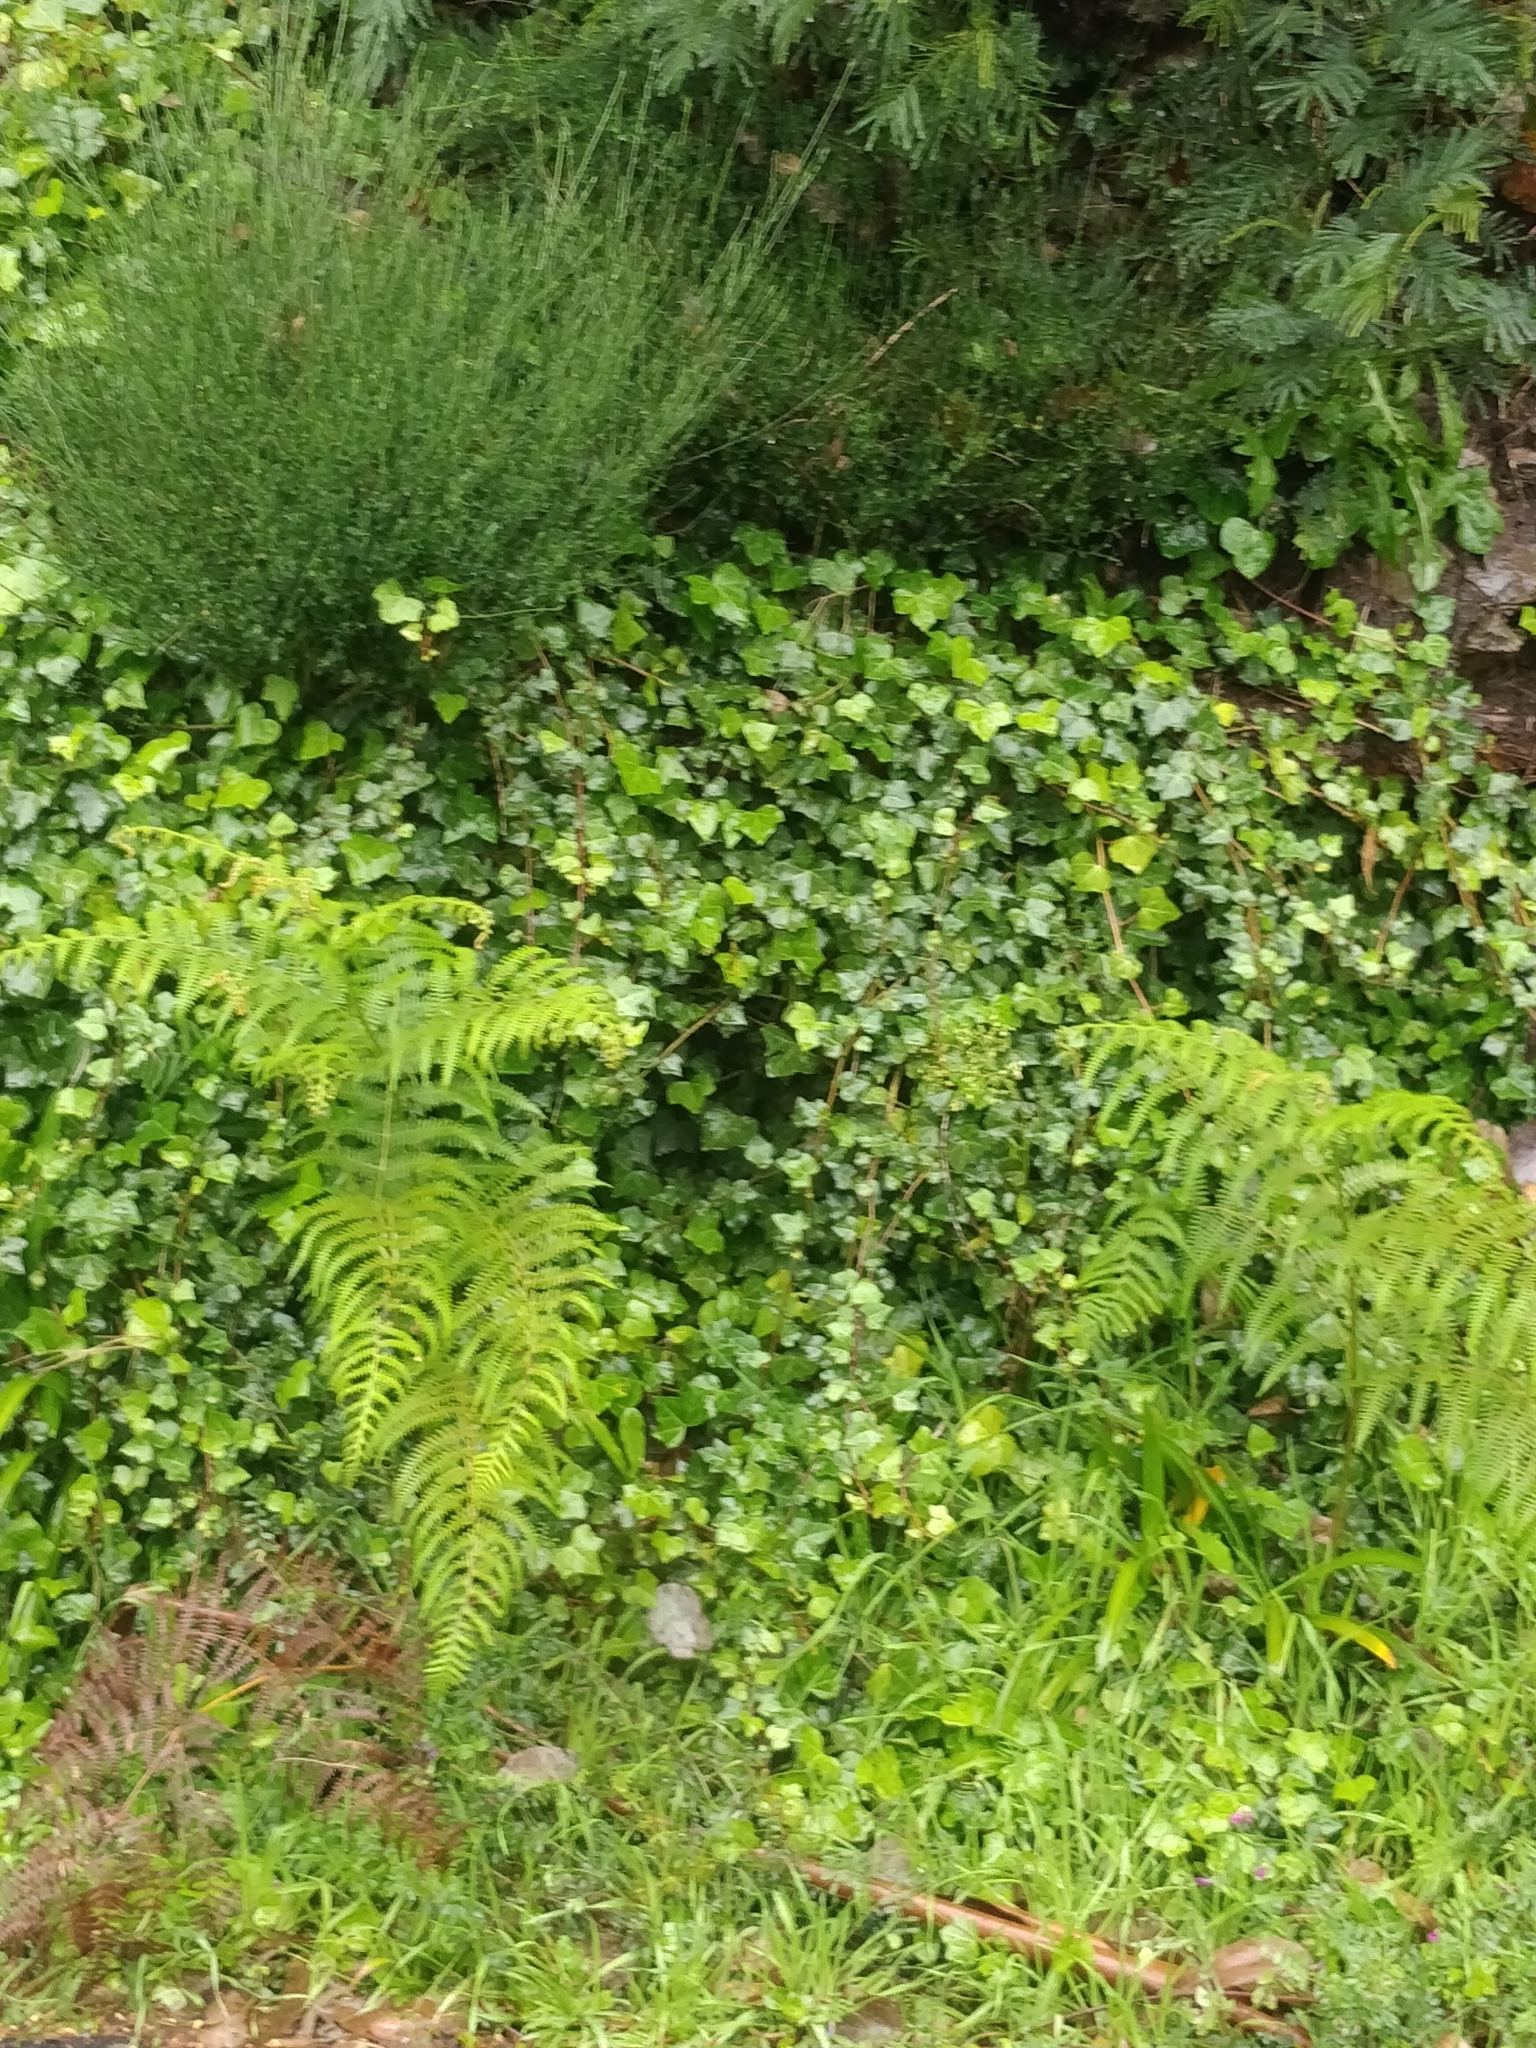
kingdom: Plantae
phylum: Tracheophyta
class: Polypodiopsida
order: Polypodiales
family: Dennstaedtiaceae
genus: Pteridium
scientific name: Pteridium aquilinum
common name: Bracken
